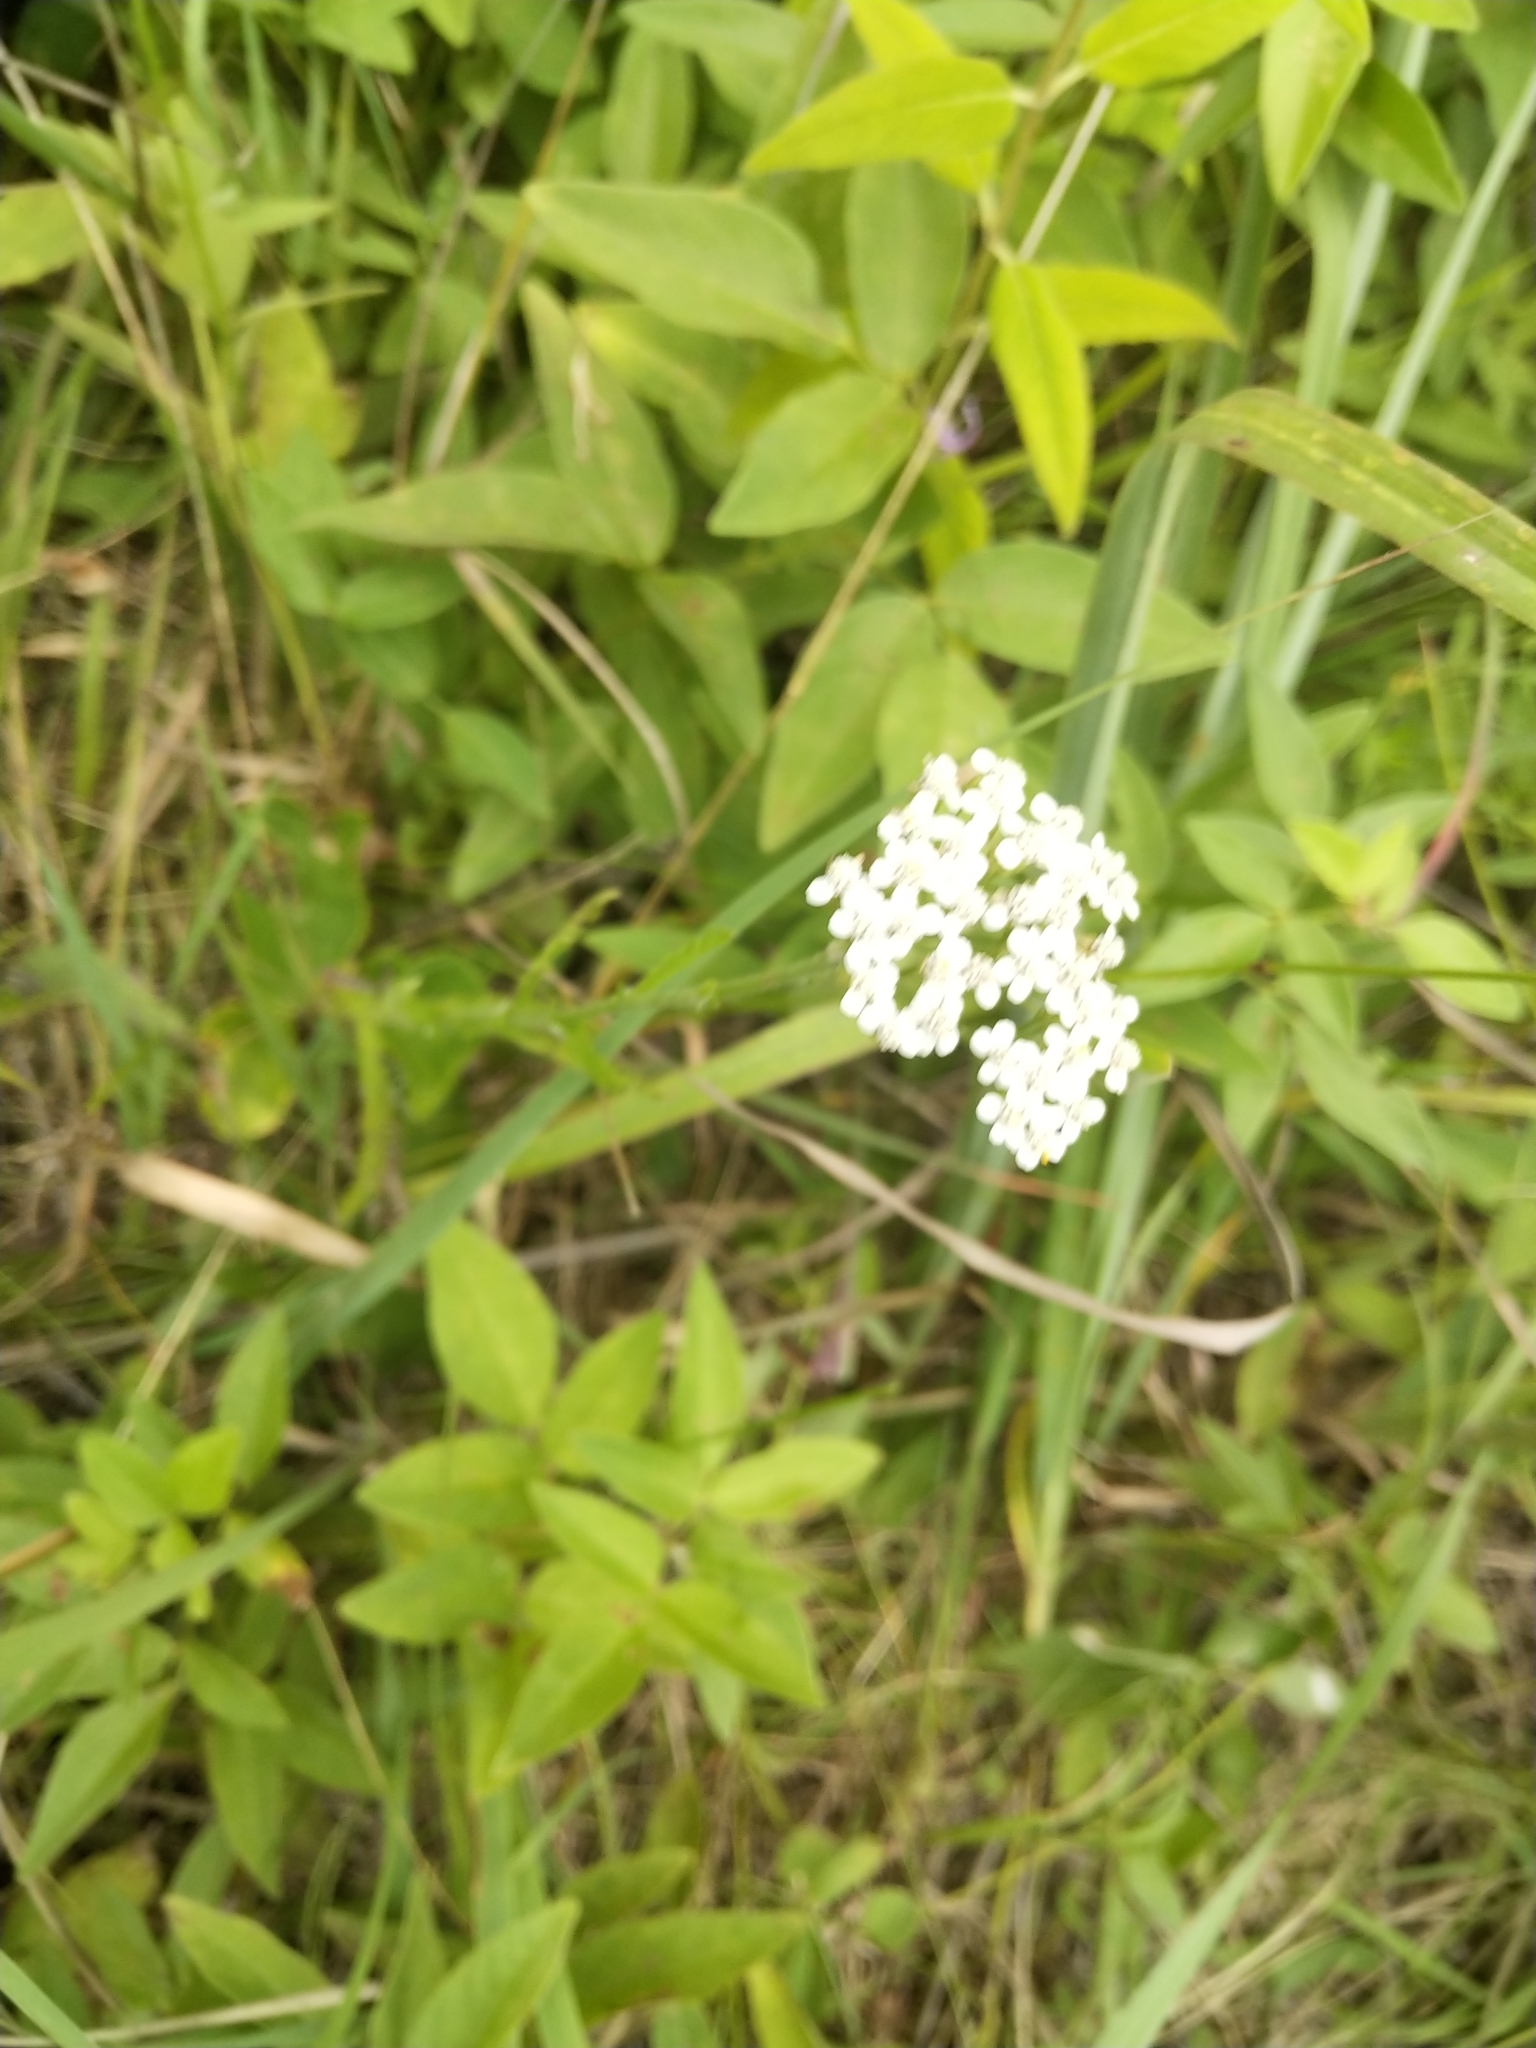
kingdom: Plantae
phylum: Tracheophyta
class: Magnoliopsida
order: Apiales
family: Apiaceae
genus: Daucus
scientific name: Daucus carota
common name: Wild carrot
